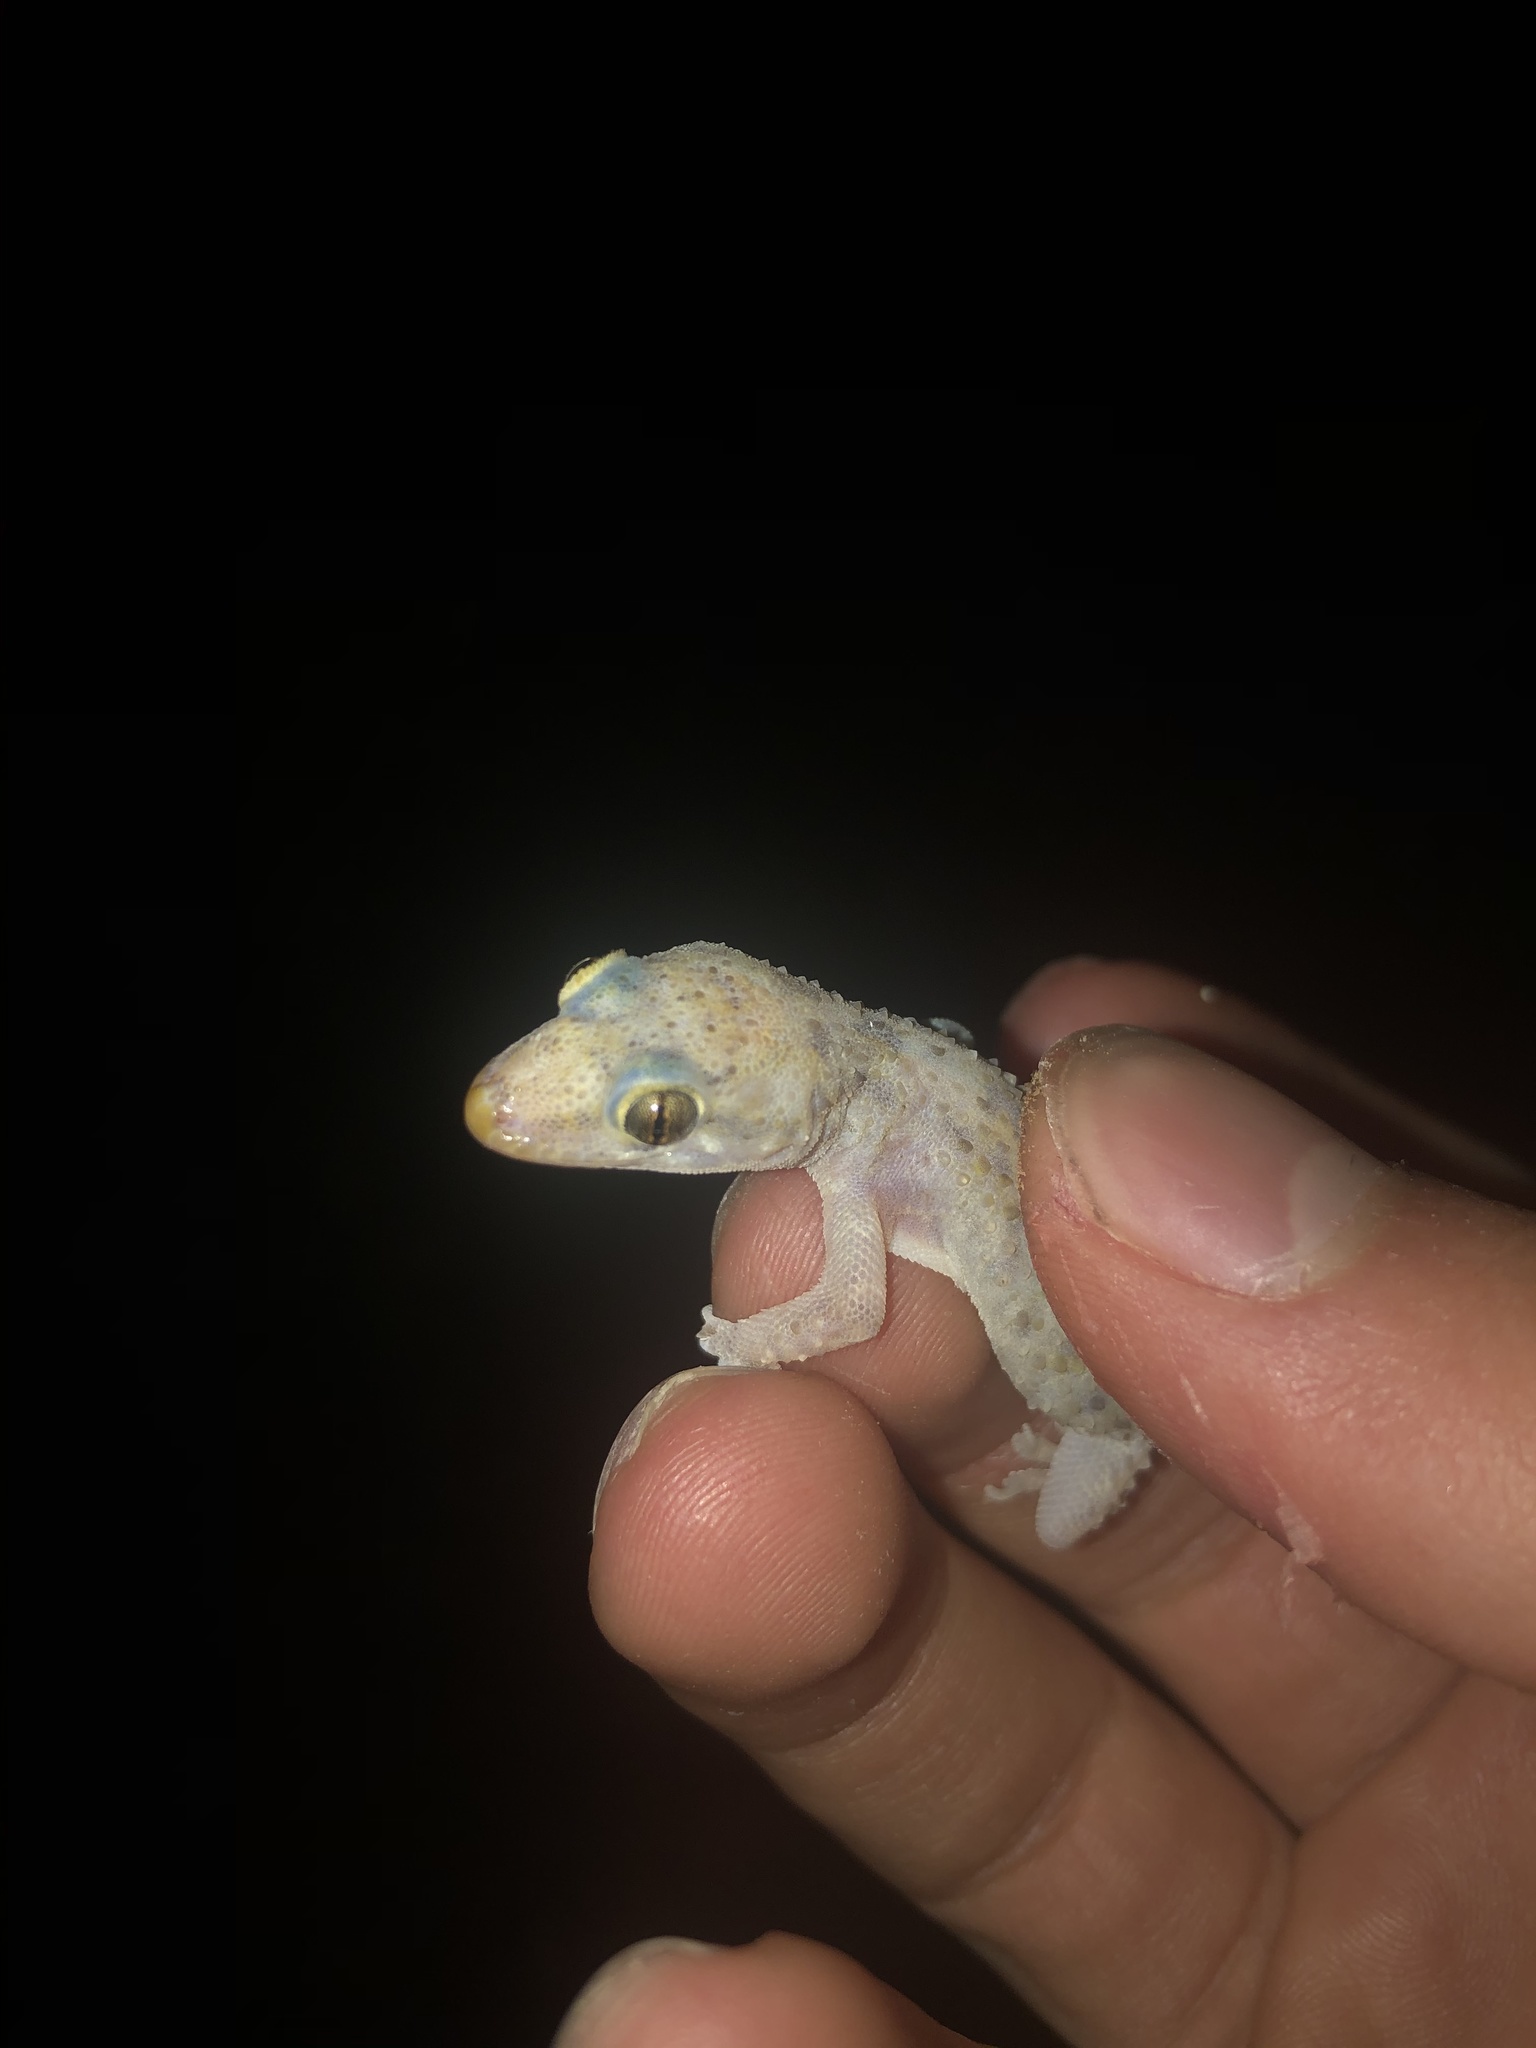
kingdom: Animalia
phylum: Chordata
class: Squamata
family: Gekkonidae
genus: Hemidactylus
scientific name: Hemidactylus turcicus
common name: Turkish gecko
